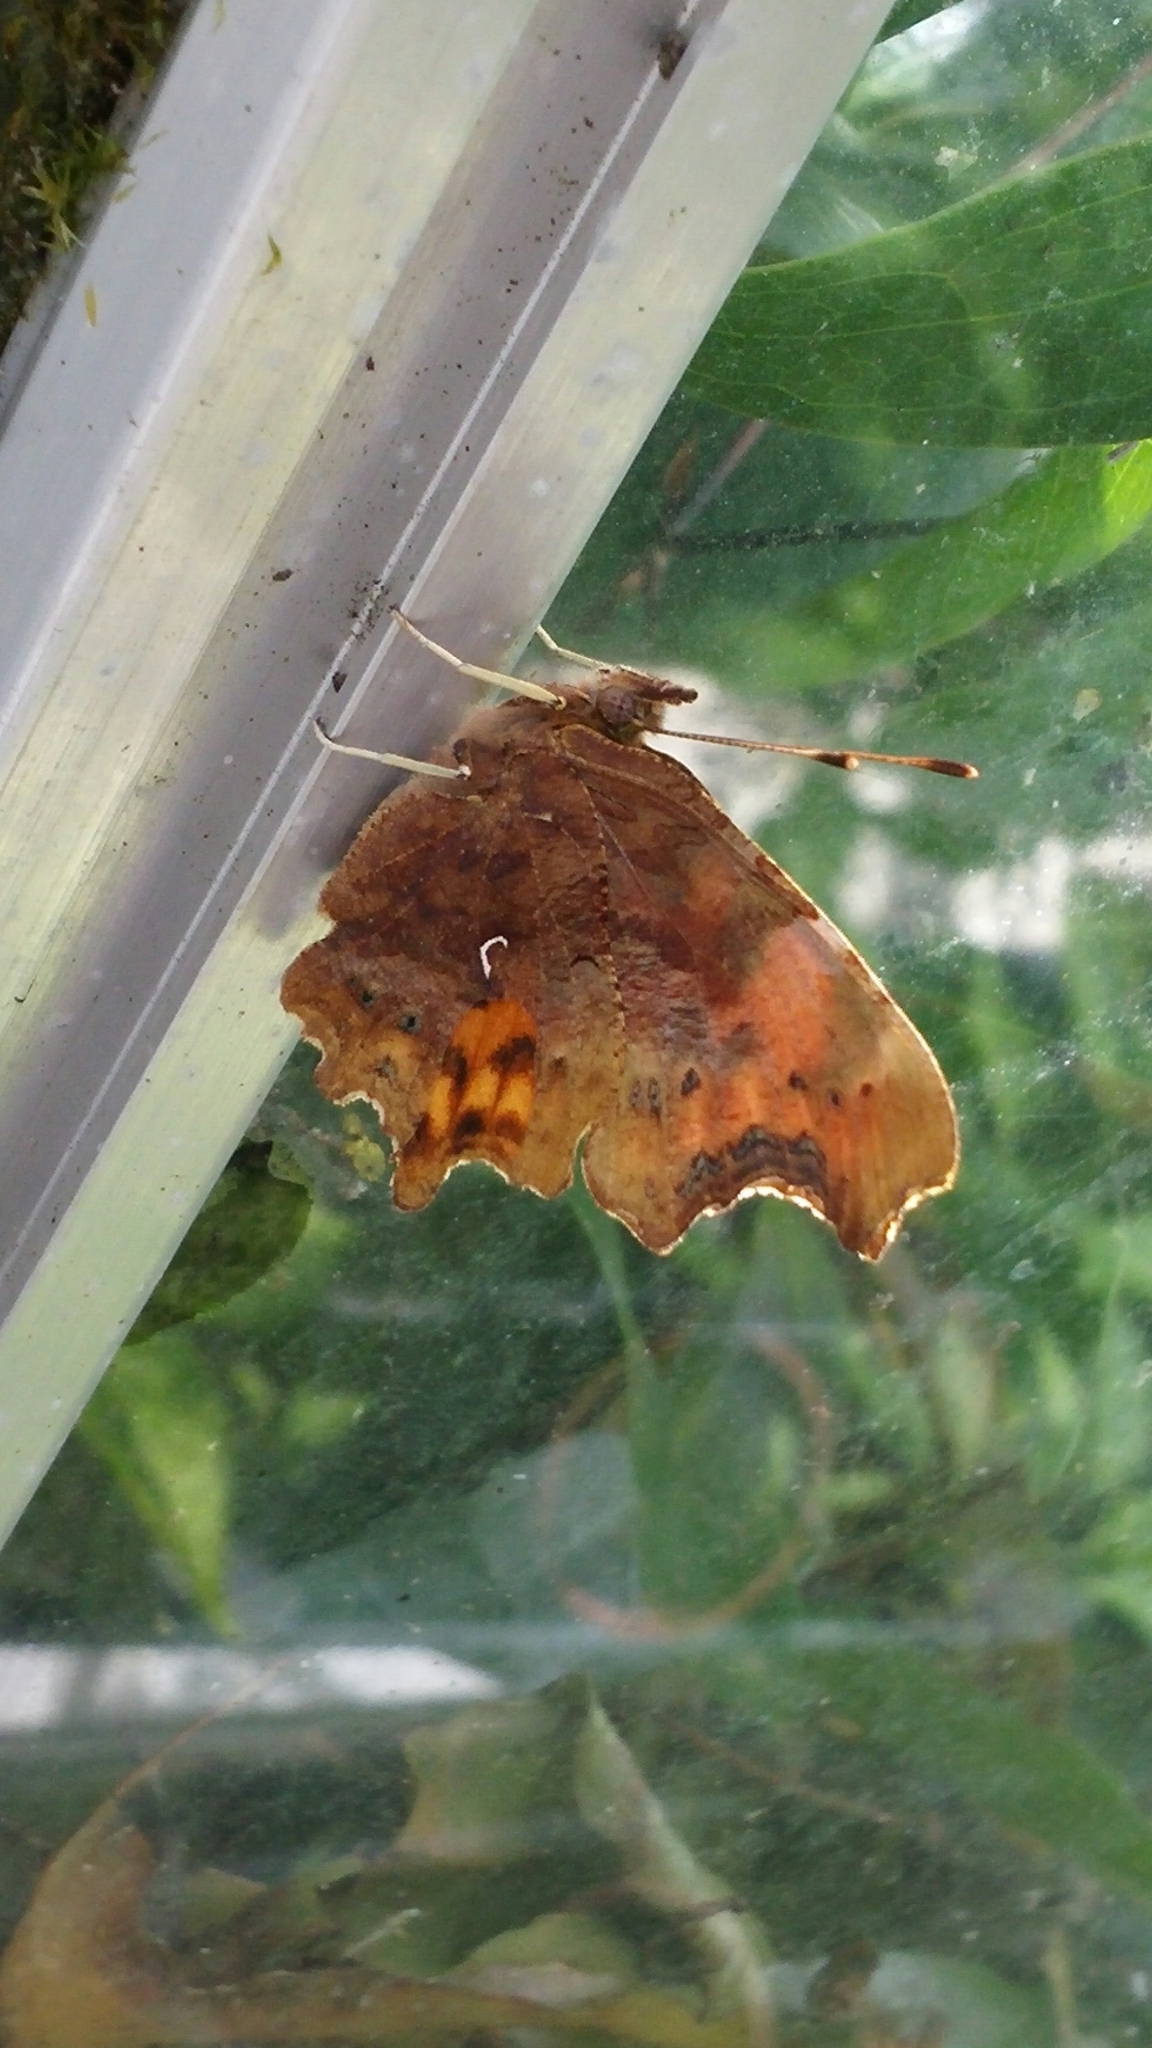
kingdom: Animalia
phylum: Arthropoda
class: Insecta
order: Lepidoptera
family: Nymphalidae
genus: Polygonia
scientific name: Polygonia c-album
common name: Comma
